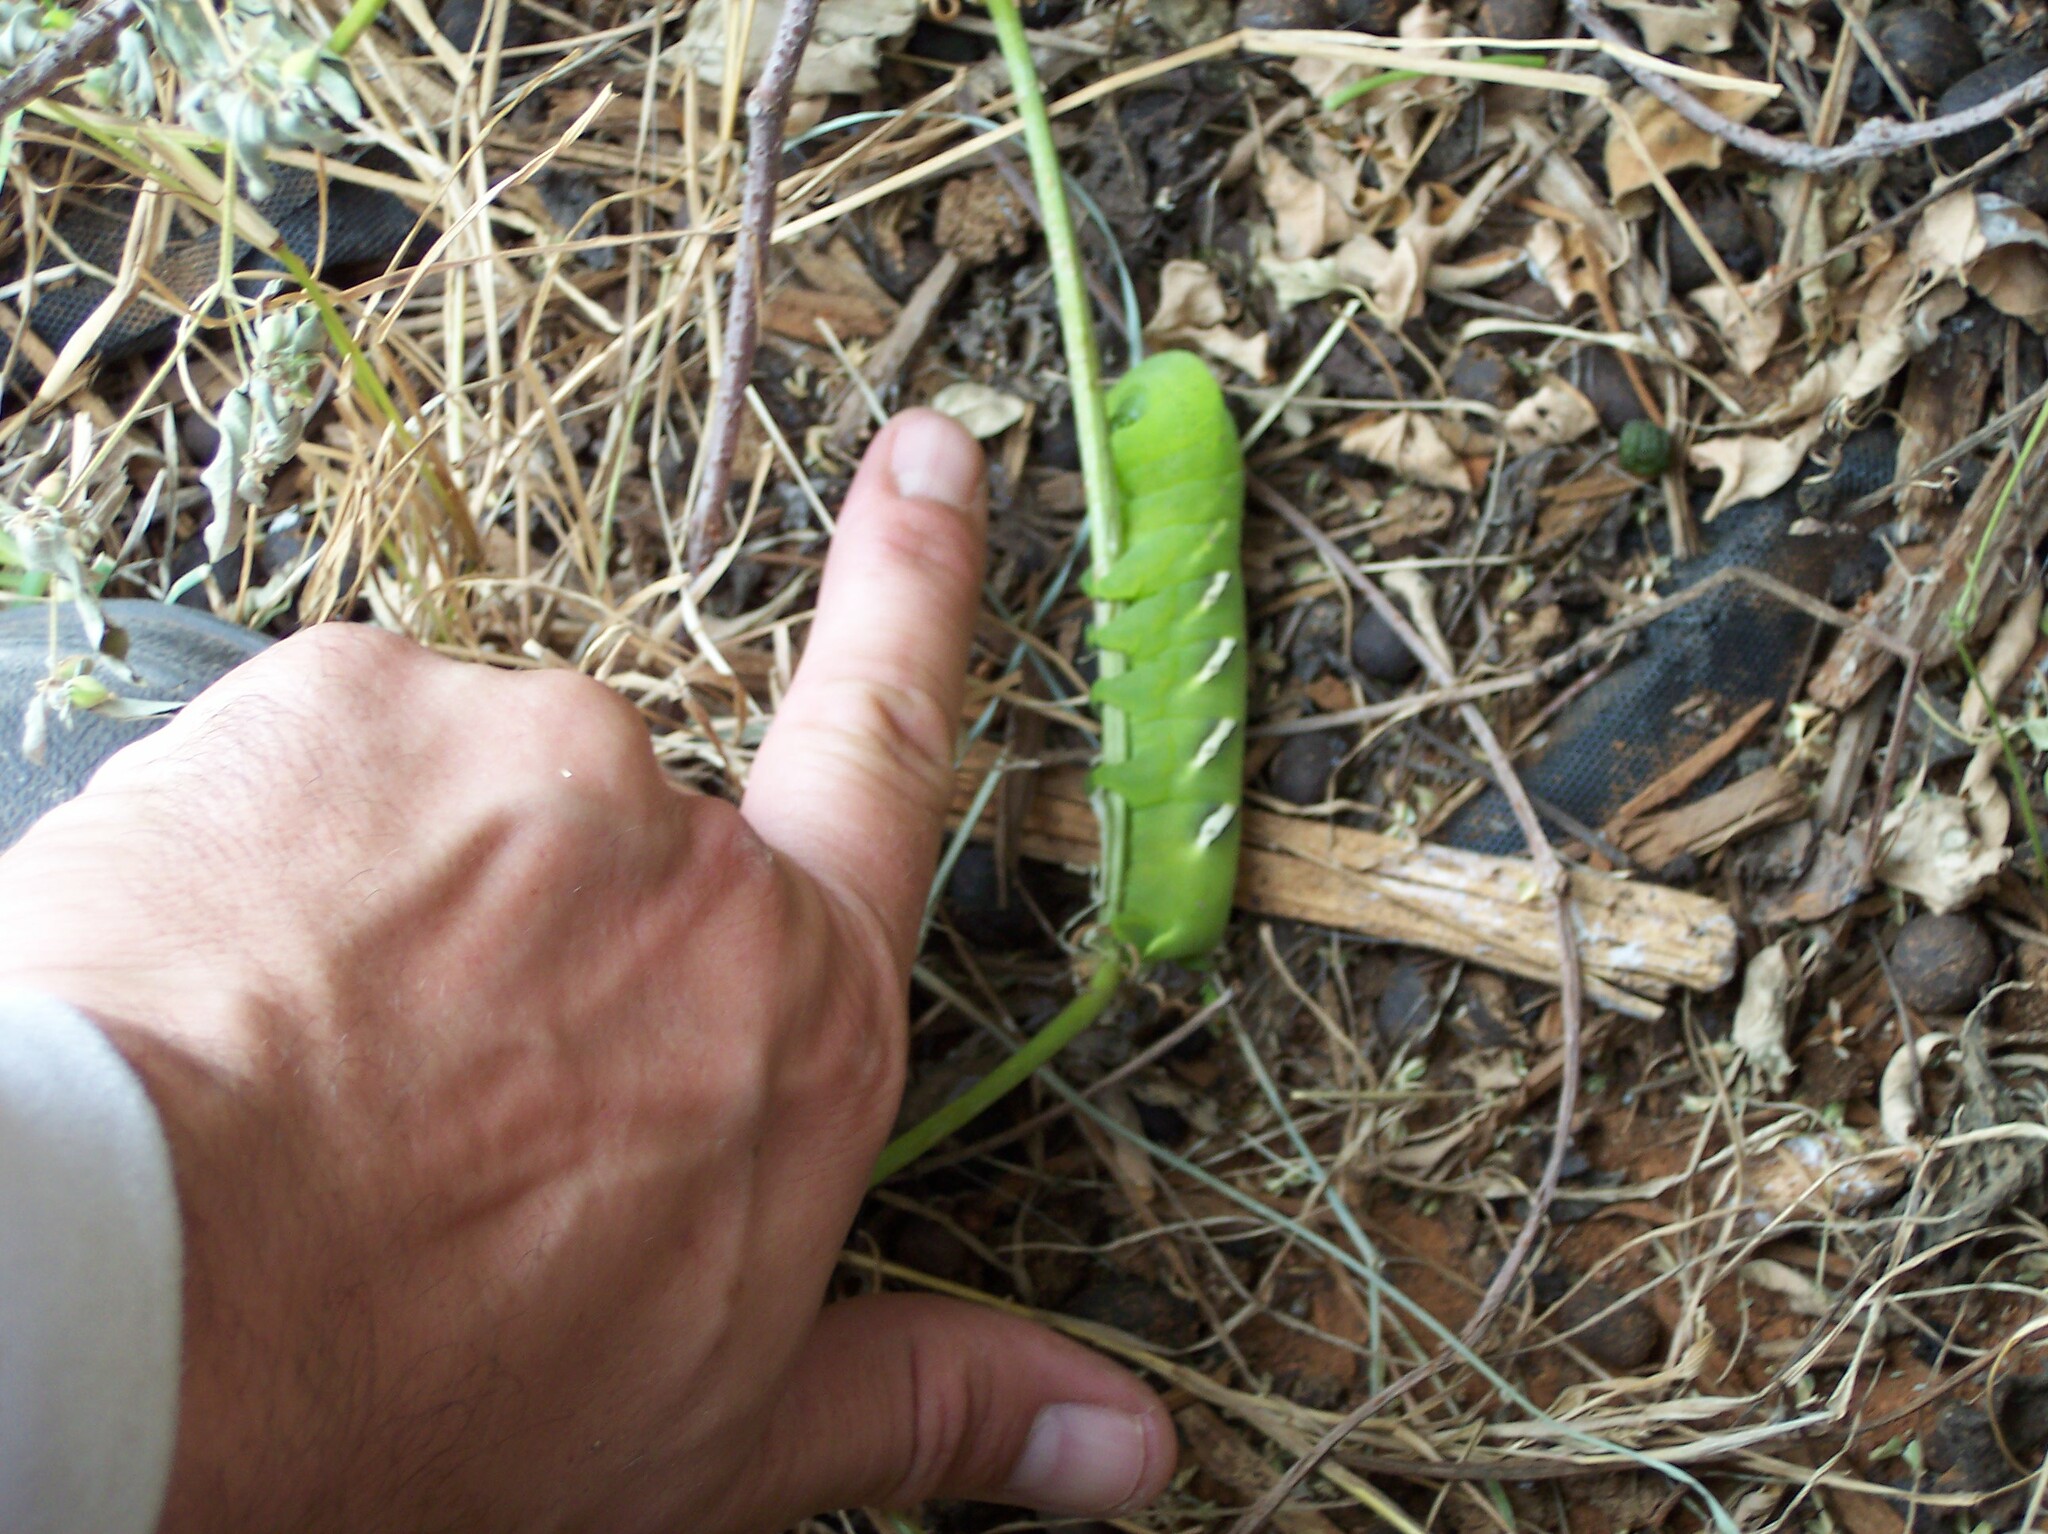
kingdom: Animalia
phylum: Arthropoda
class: Insecta
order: Lepidoptera
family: Sphingidae
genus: Eumorpha
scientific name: Eumorpha vitis
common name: Vine sphinx
